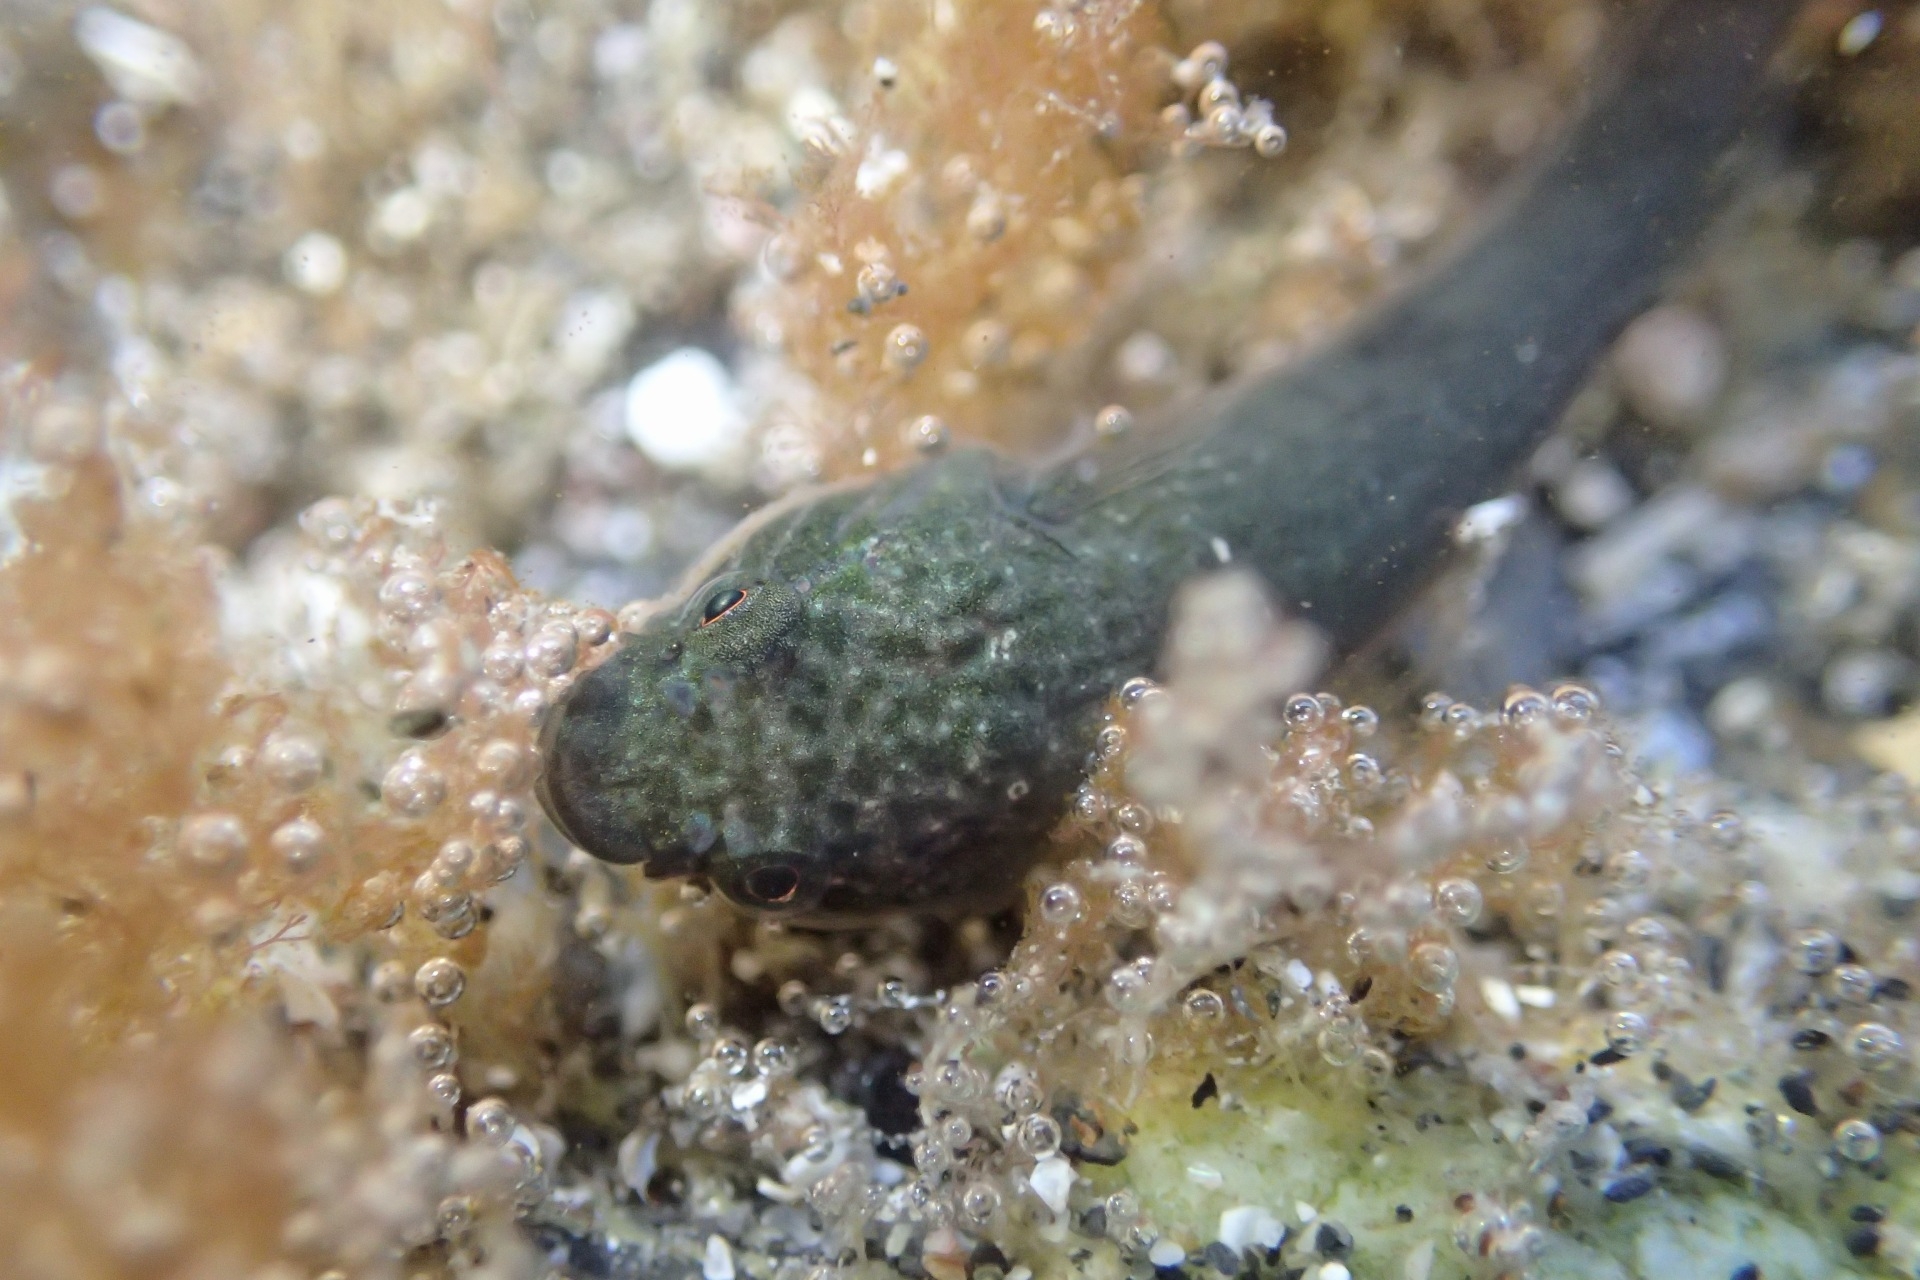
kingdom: Animalia
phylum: Chordata
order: Gobiesociformes
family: Gobiesocidae
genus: Trachelochismus
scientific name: Trachelochismus pinnulatus
